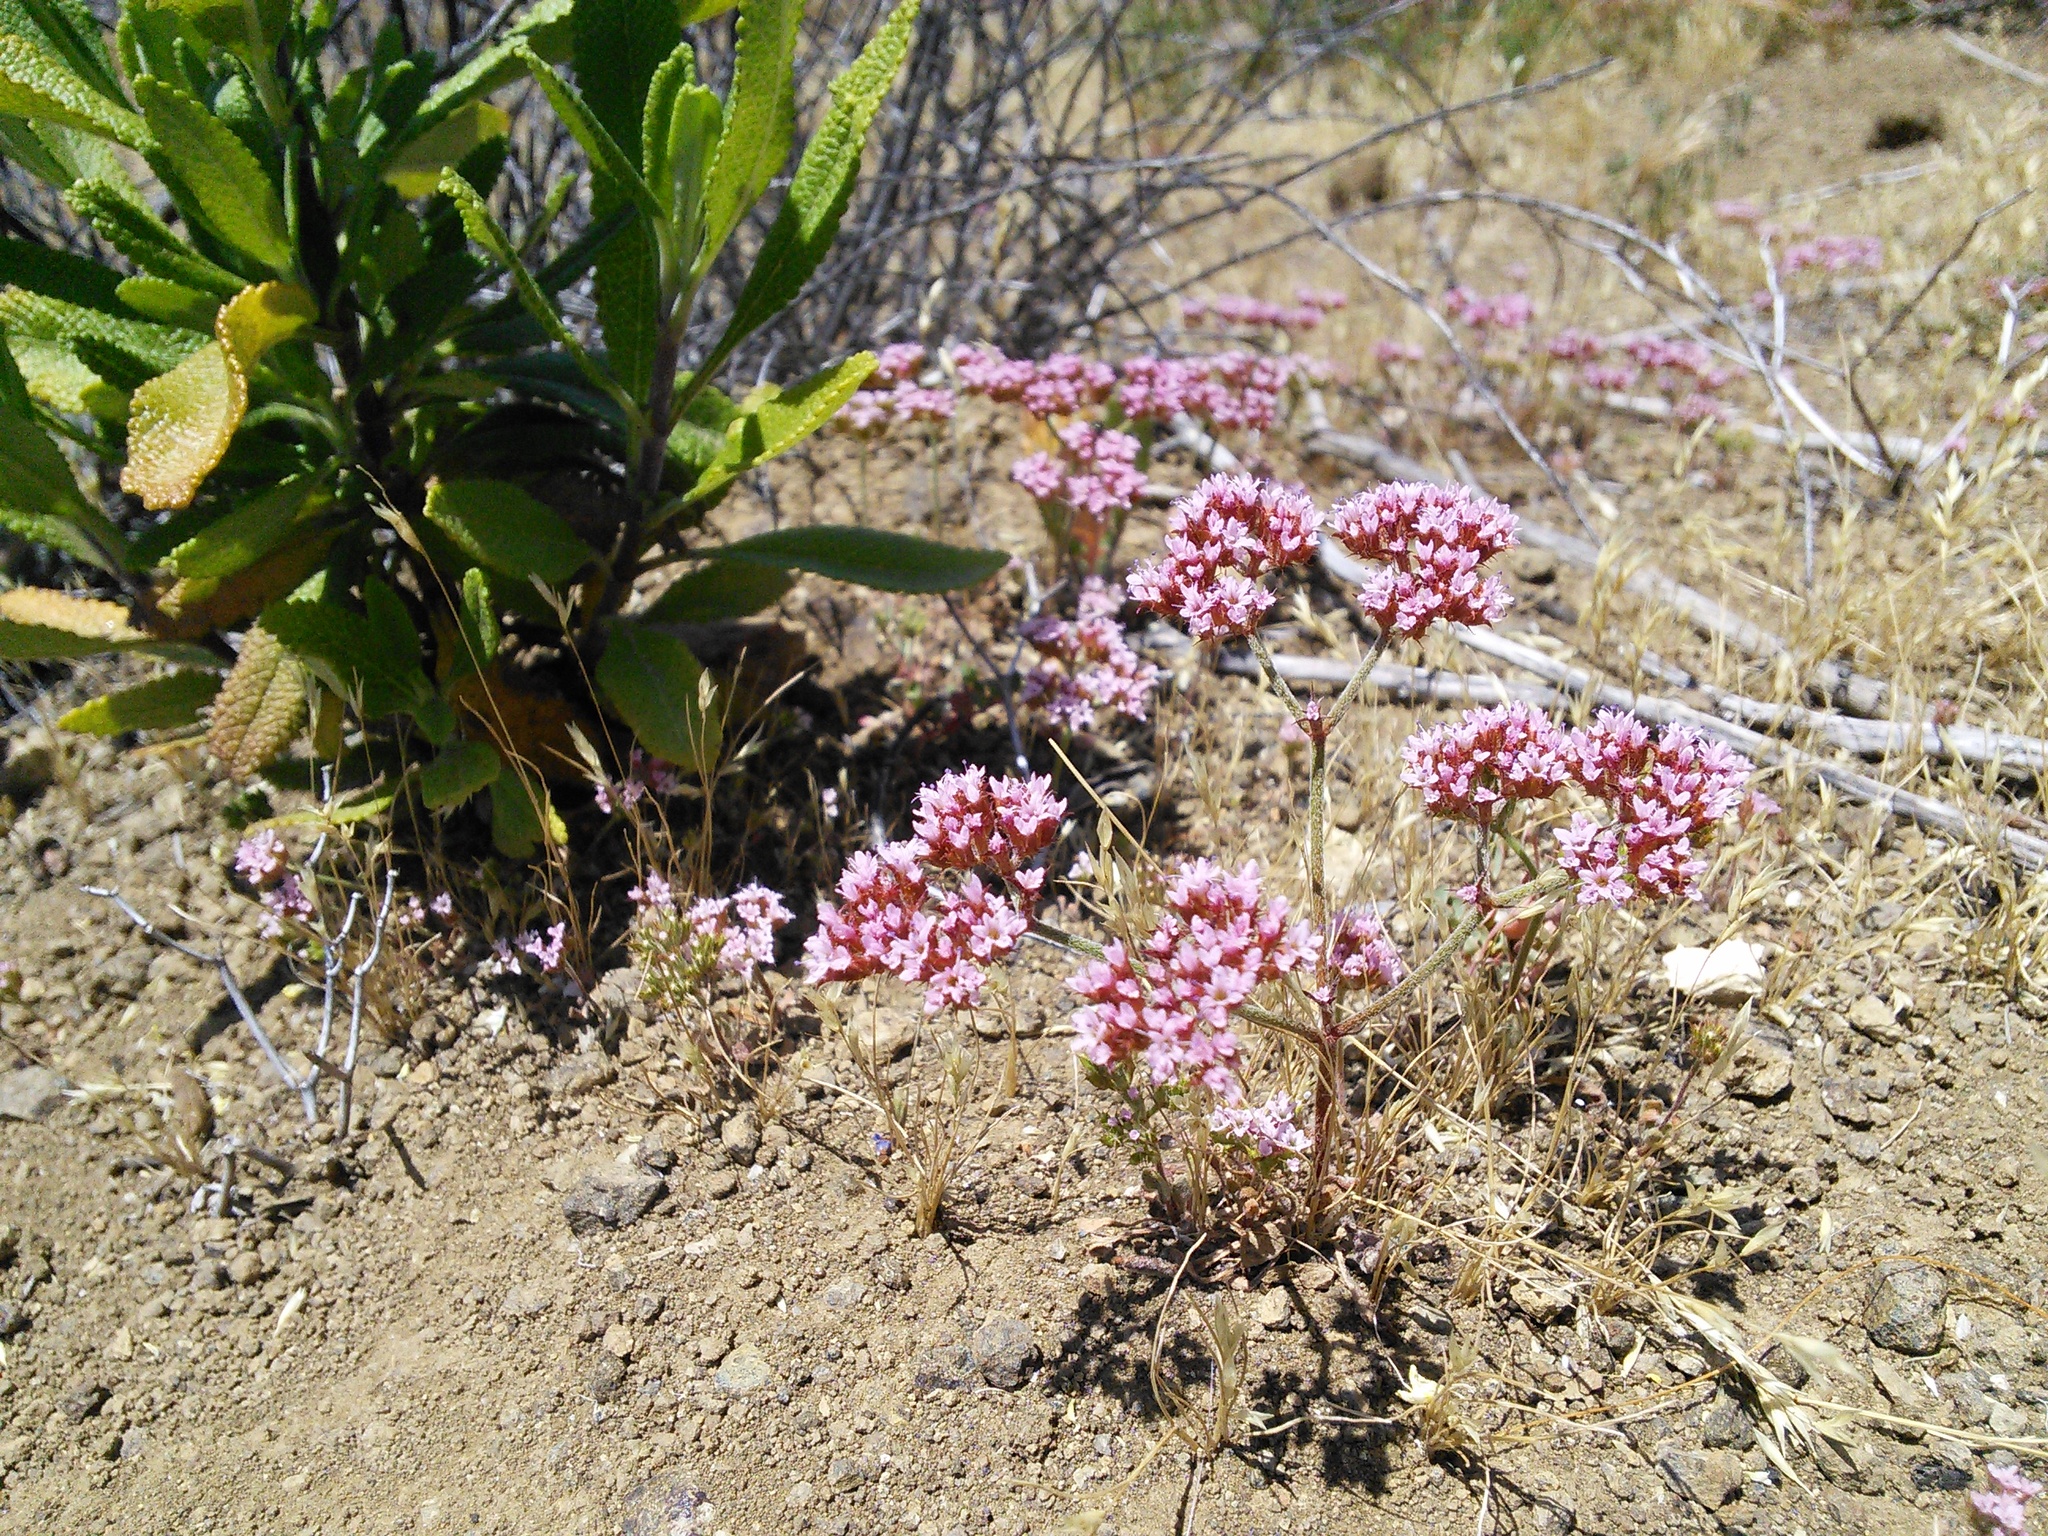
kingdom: Plantae
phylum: Tracheophyta
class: Magnoliopsida
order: Caryophyllales
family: Polygonaceae
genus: Chorizanthe
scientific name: Chorizanthe staticoides
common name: Turkish rugging
